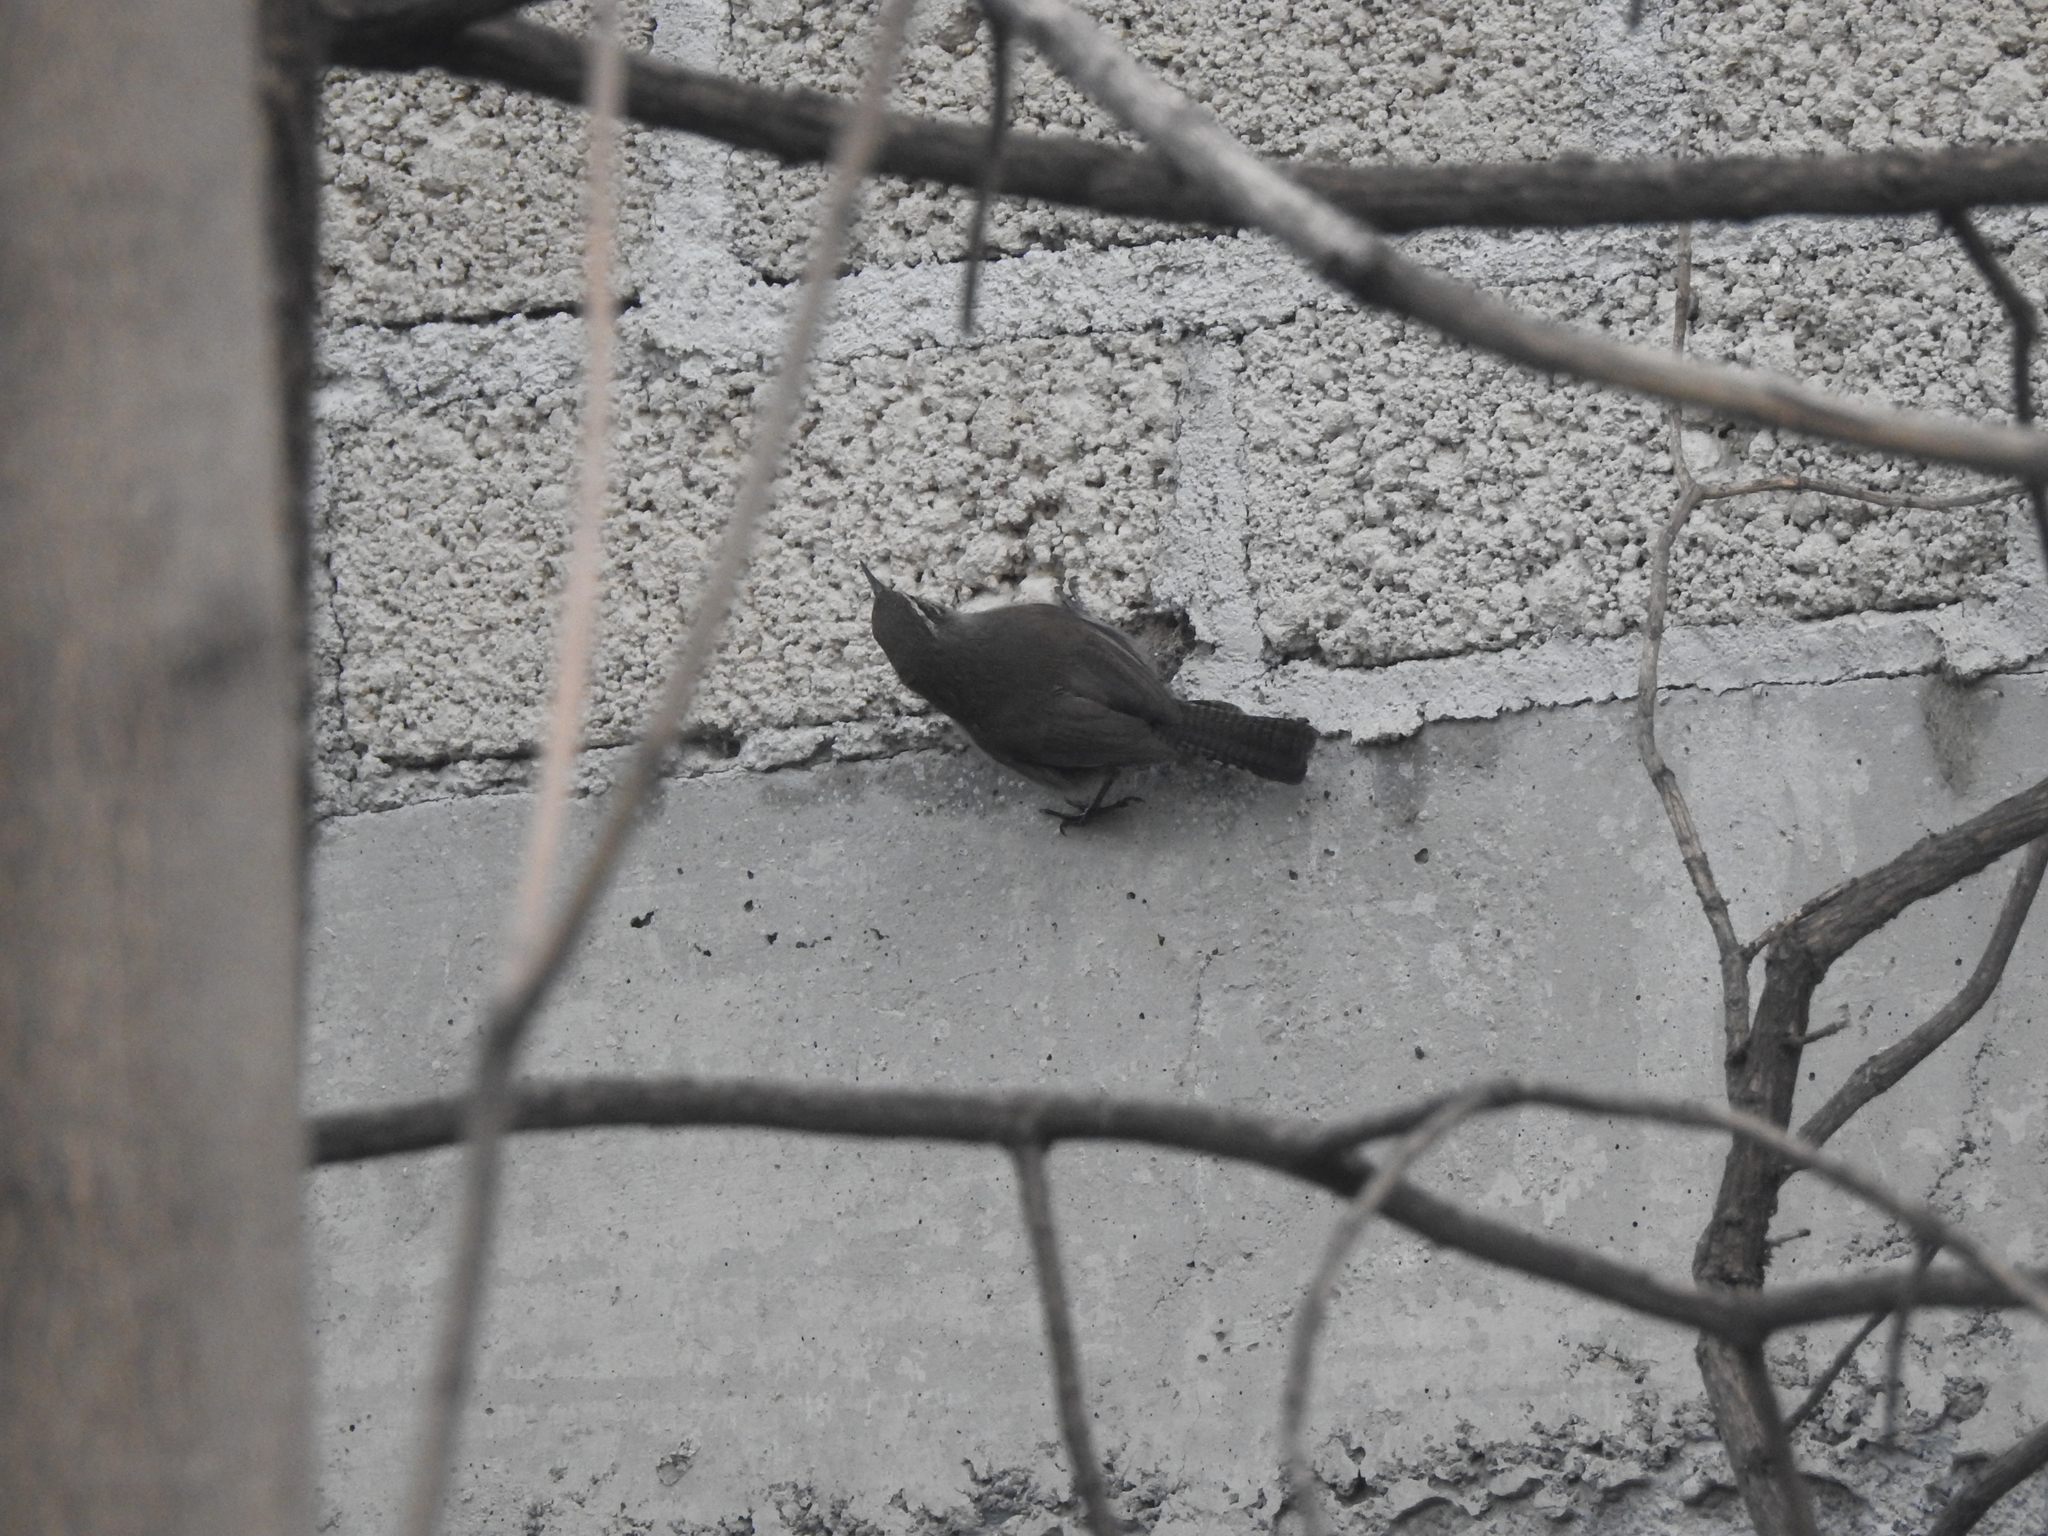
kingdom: Animalia
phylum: Chordata
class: Aves
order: Passeriformes
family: Troglodytidae
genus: Thryomanes
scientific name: Thryomanes bewickii
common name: Bewick's wren
